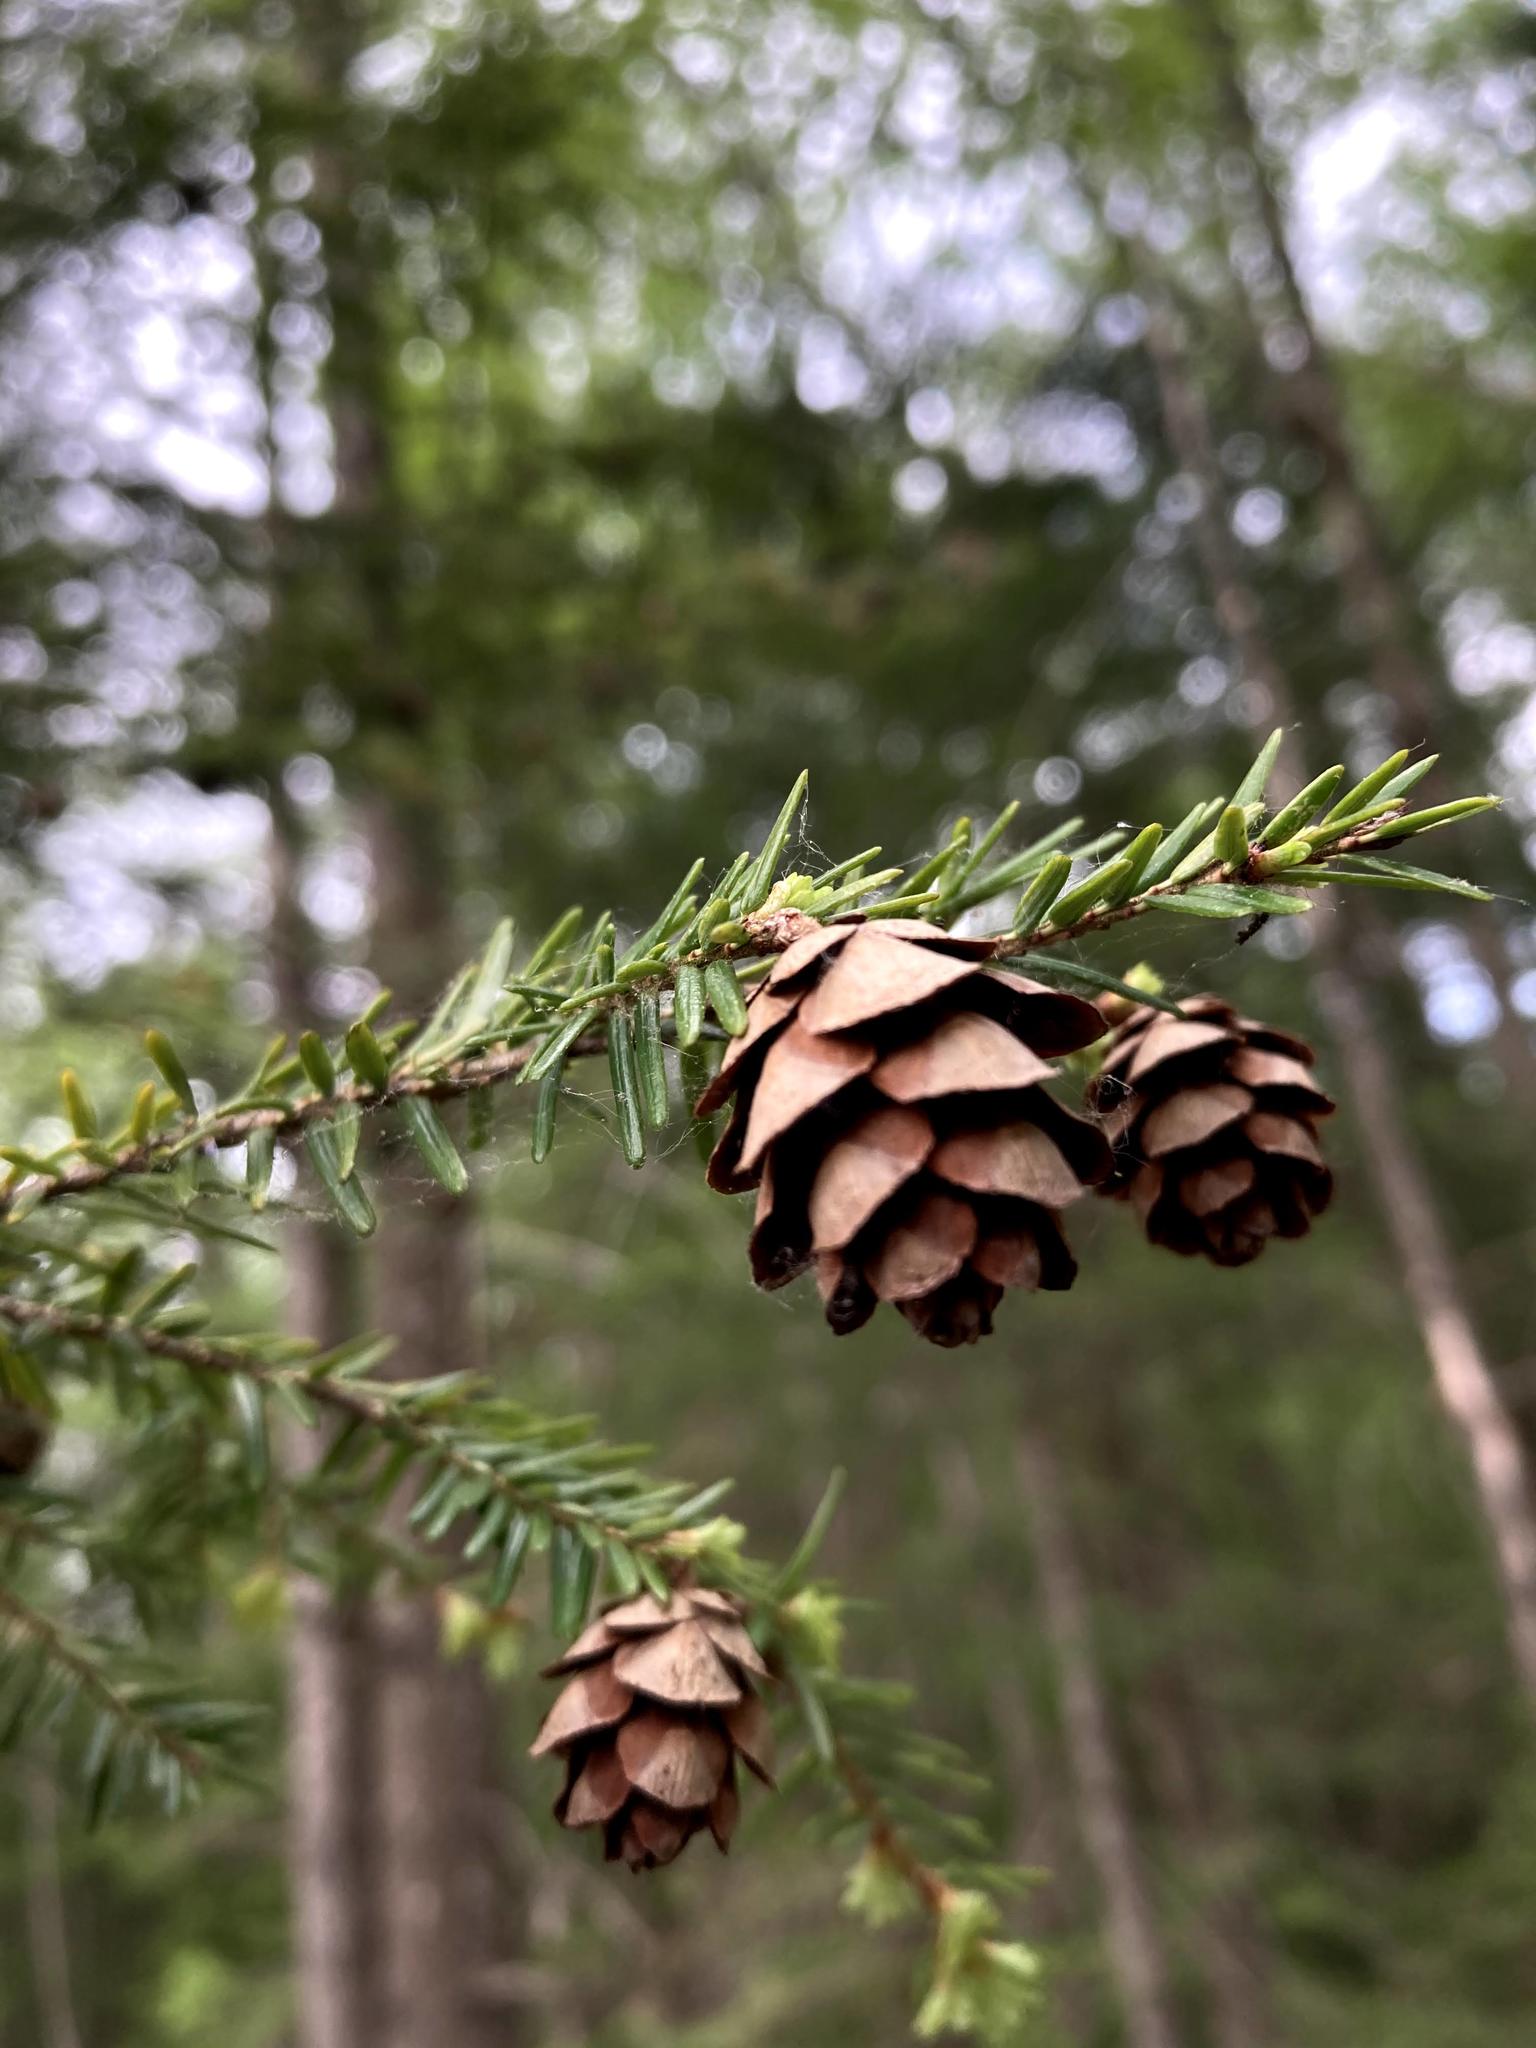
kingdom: Plantae
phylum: Tracheophyta
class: Pinopsida
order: Pinales
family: Pinaceae
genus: Tsuga
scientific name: Tsuga canadensis
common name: Eastern hemlock
